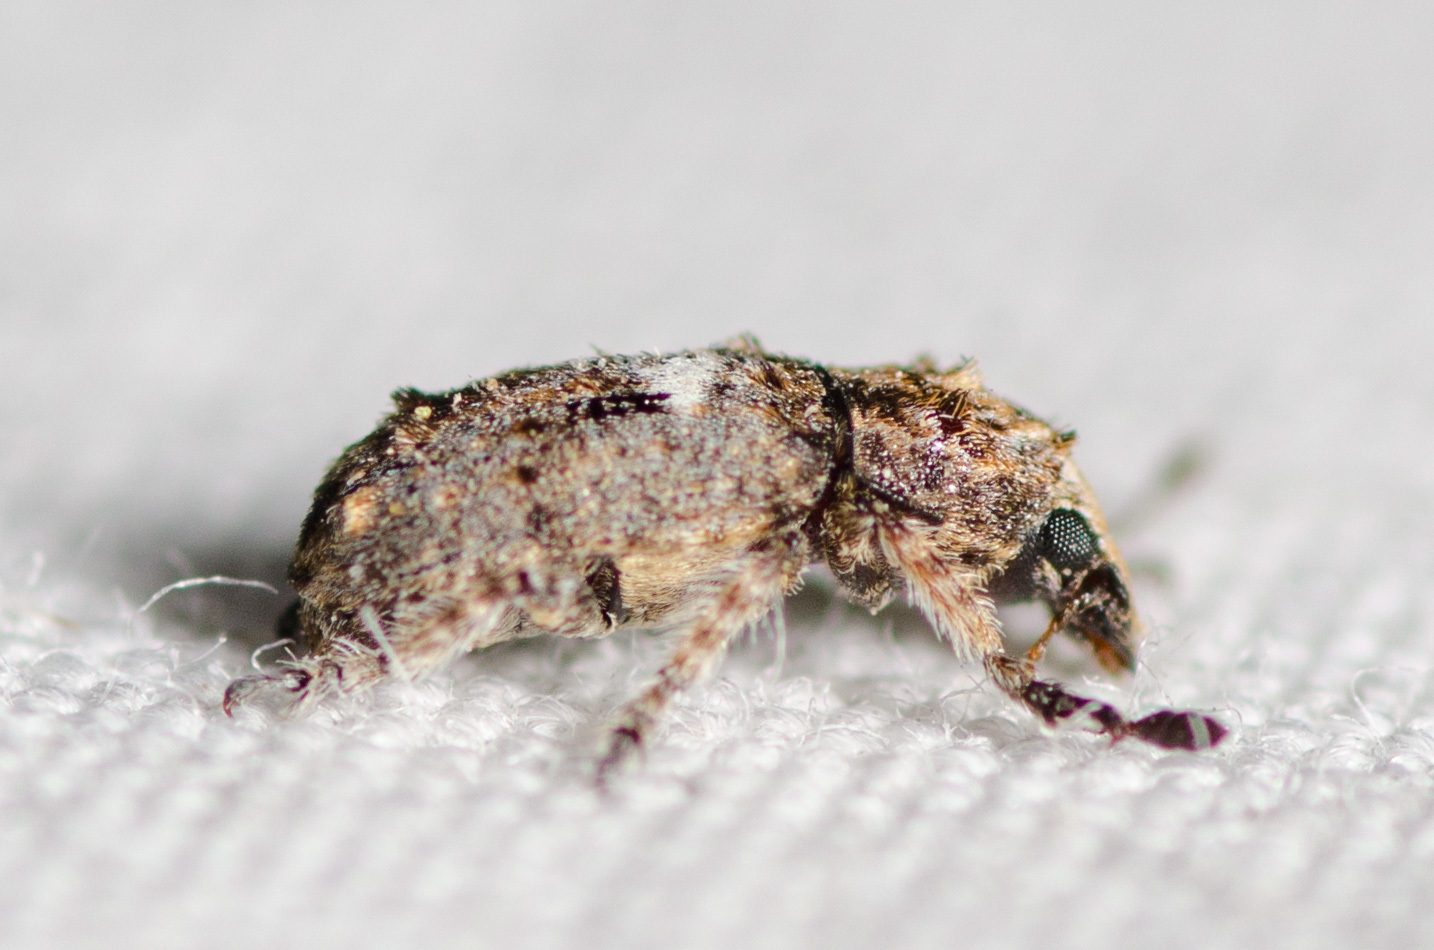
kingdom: Animalia
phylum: Arthropoda
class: Insecta
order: Coleoptera
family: Anthribidae
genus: Toxonotus
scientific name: Toxonotus cornutus
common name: Fungus weevil
